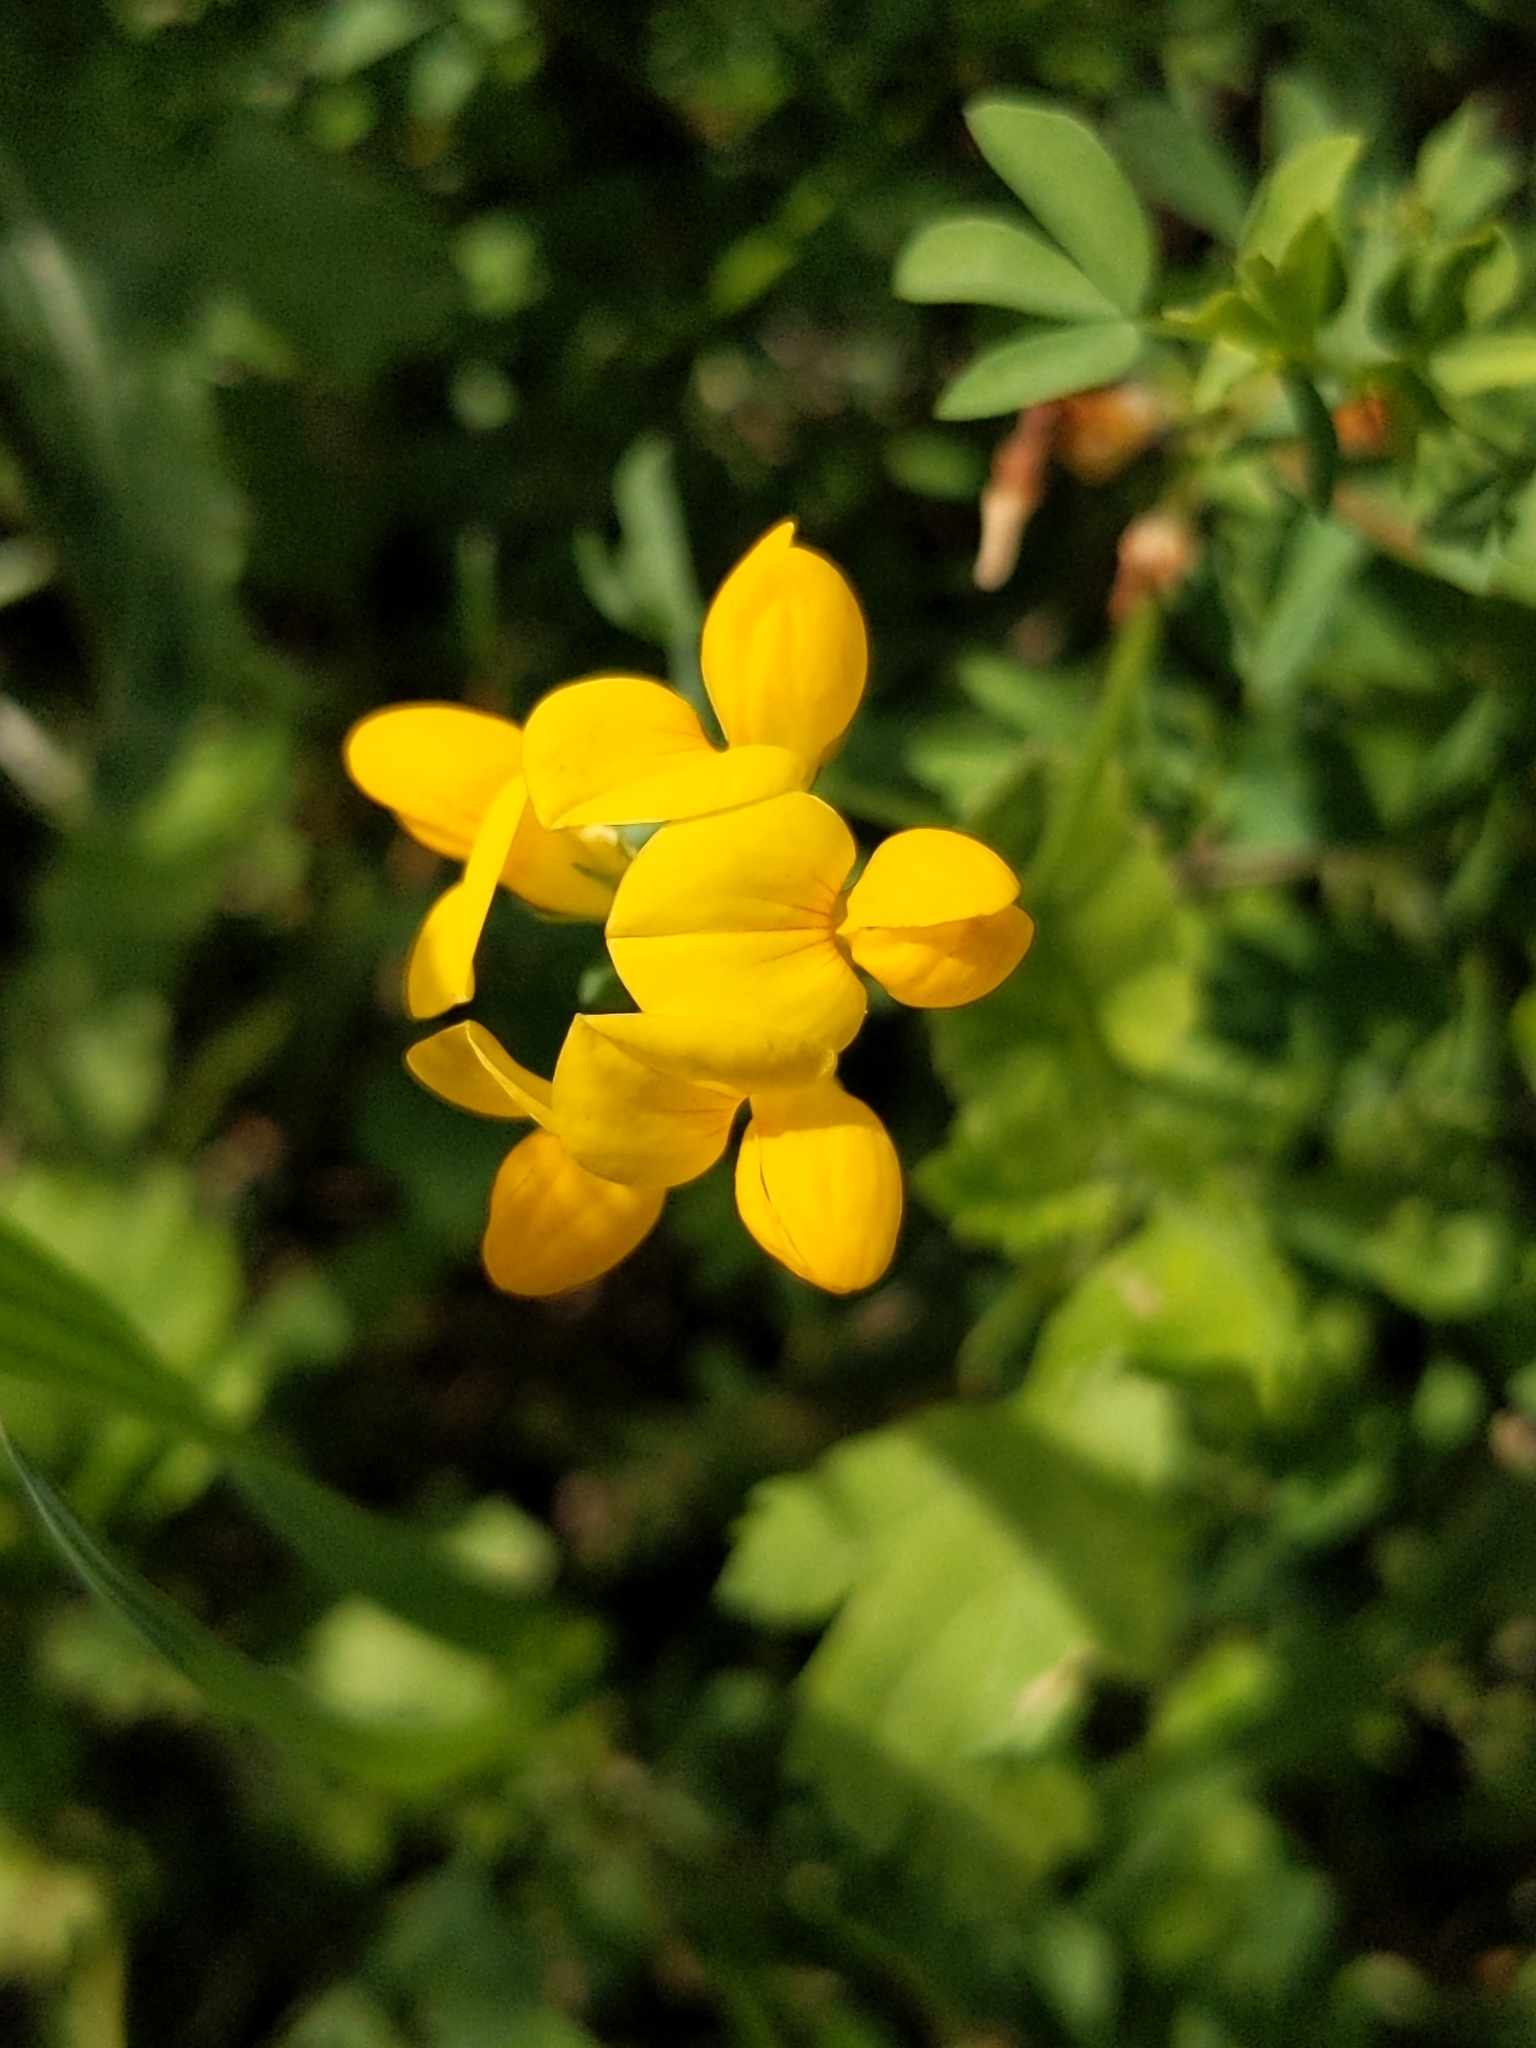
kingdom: Plantae
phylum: Tracheophyta
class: Magnoliopsida
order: Fabales
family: Fabaceae
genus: Lotus
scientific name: Lotus tenuis
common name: Narrow-leaved bird's-foot-trefoil
